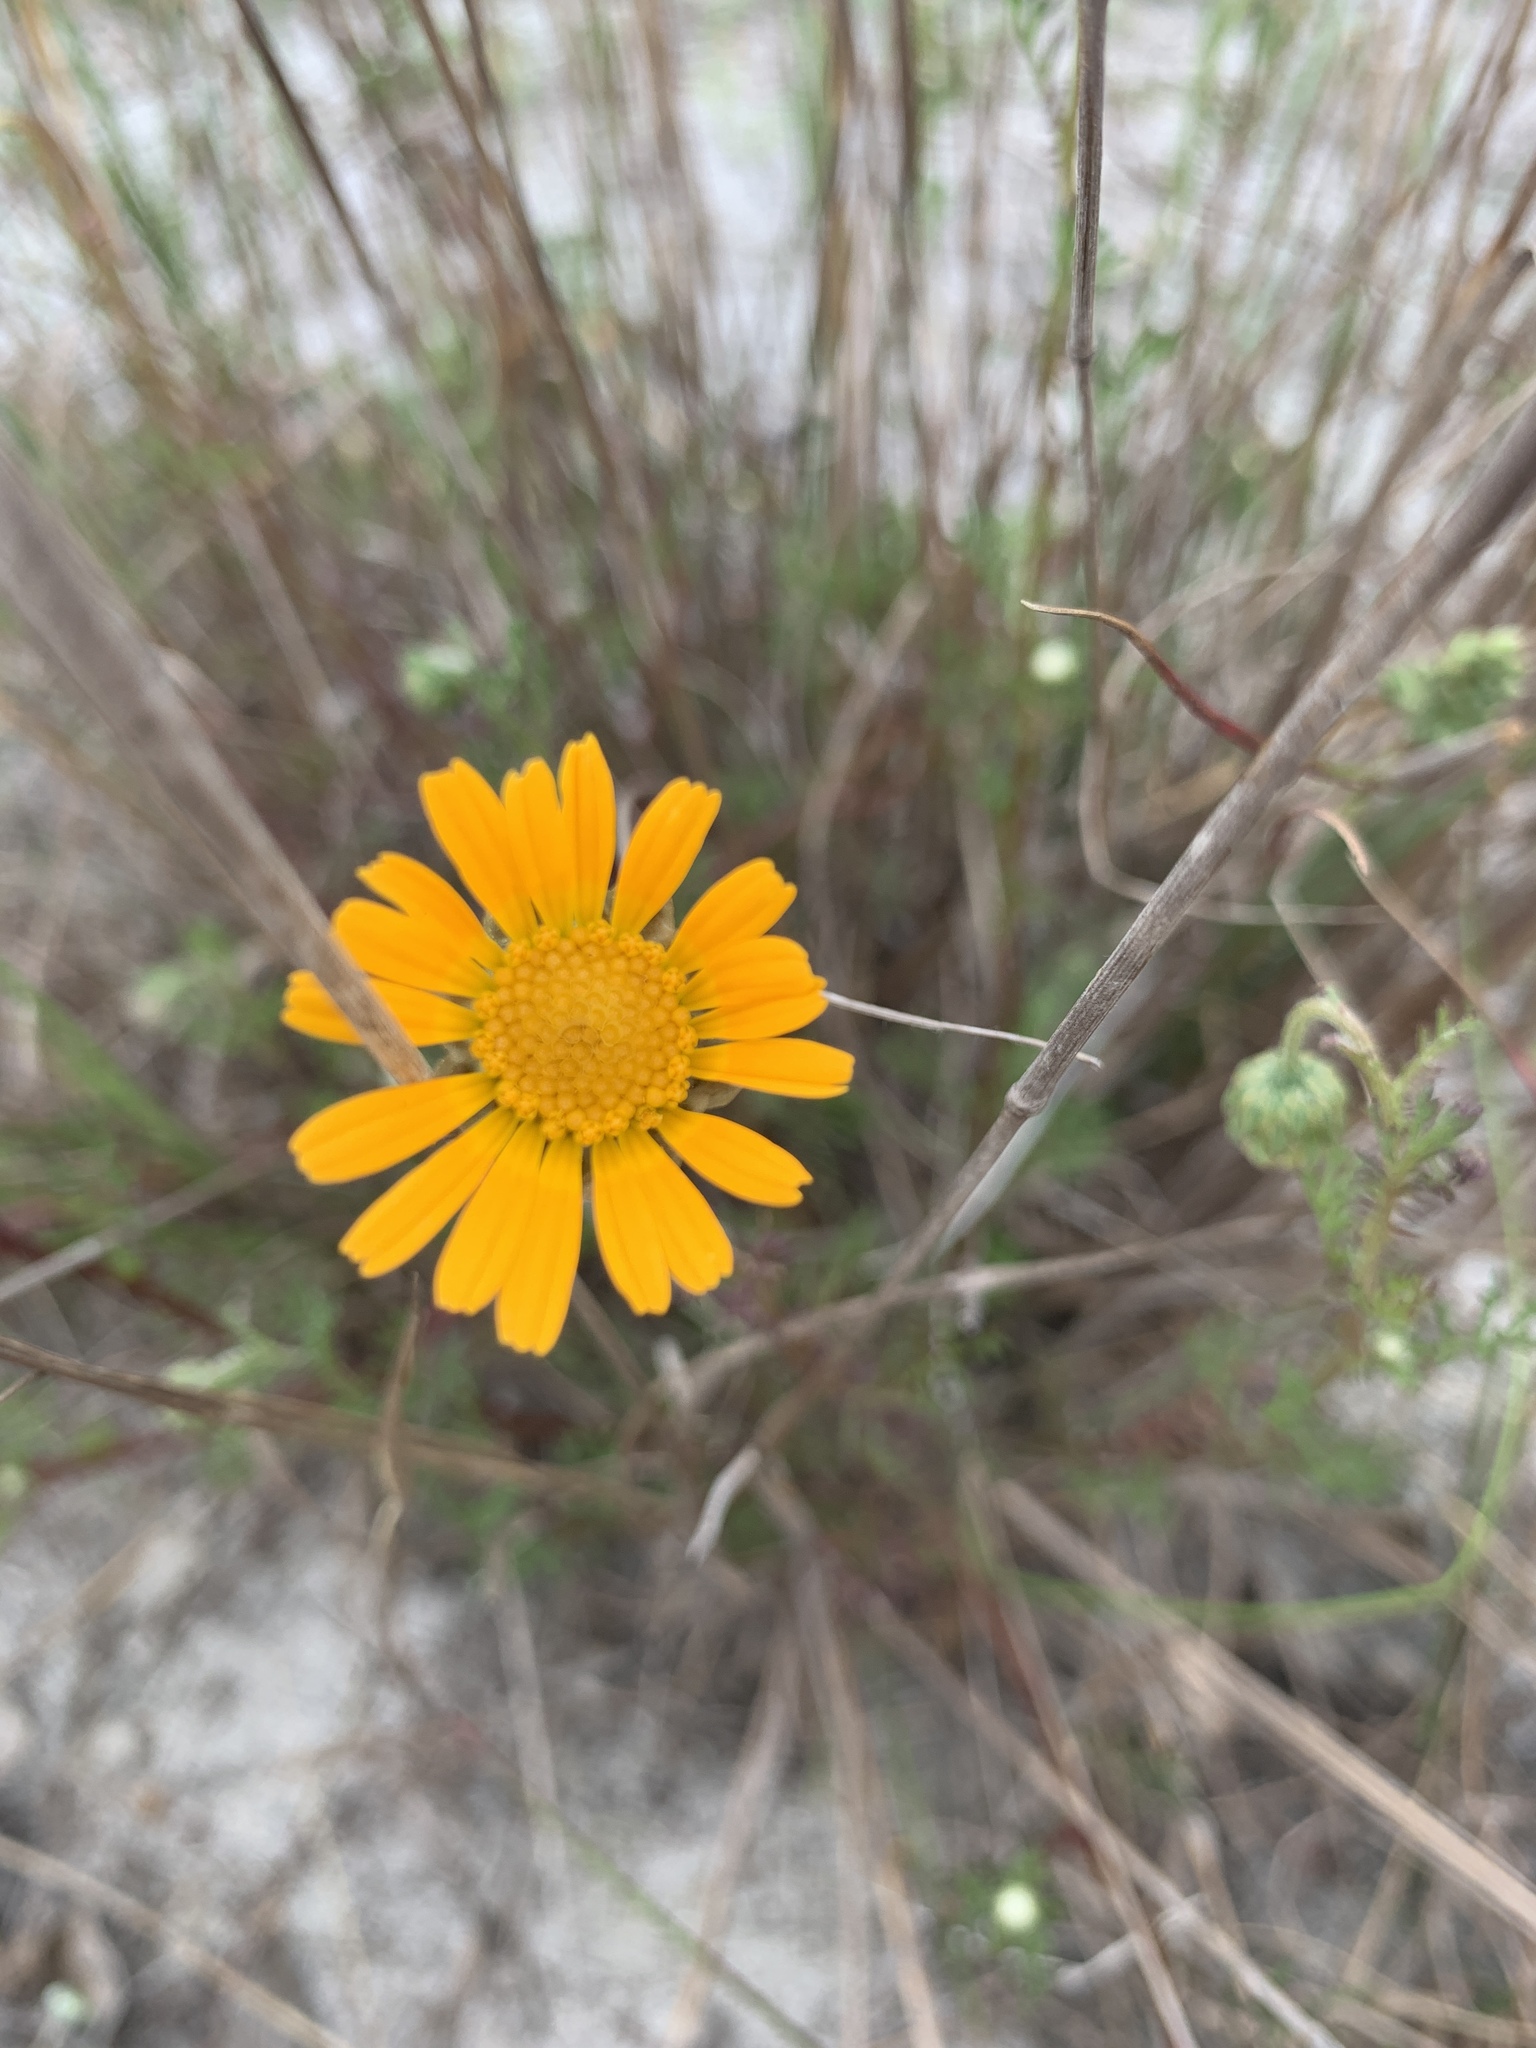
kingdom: Plantae
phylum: Tracheophyta
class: Magnoliopsida
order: Asterales
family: Asteraceae
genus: Ursinia
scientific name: Ursinia anthemoides
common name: Ursinia
